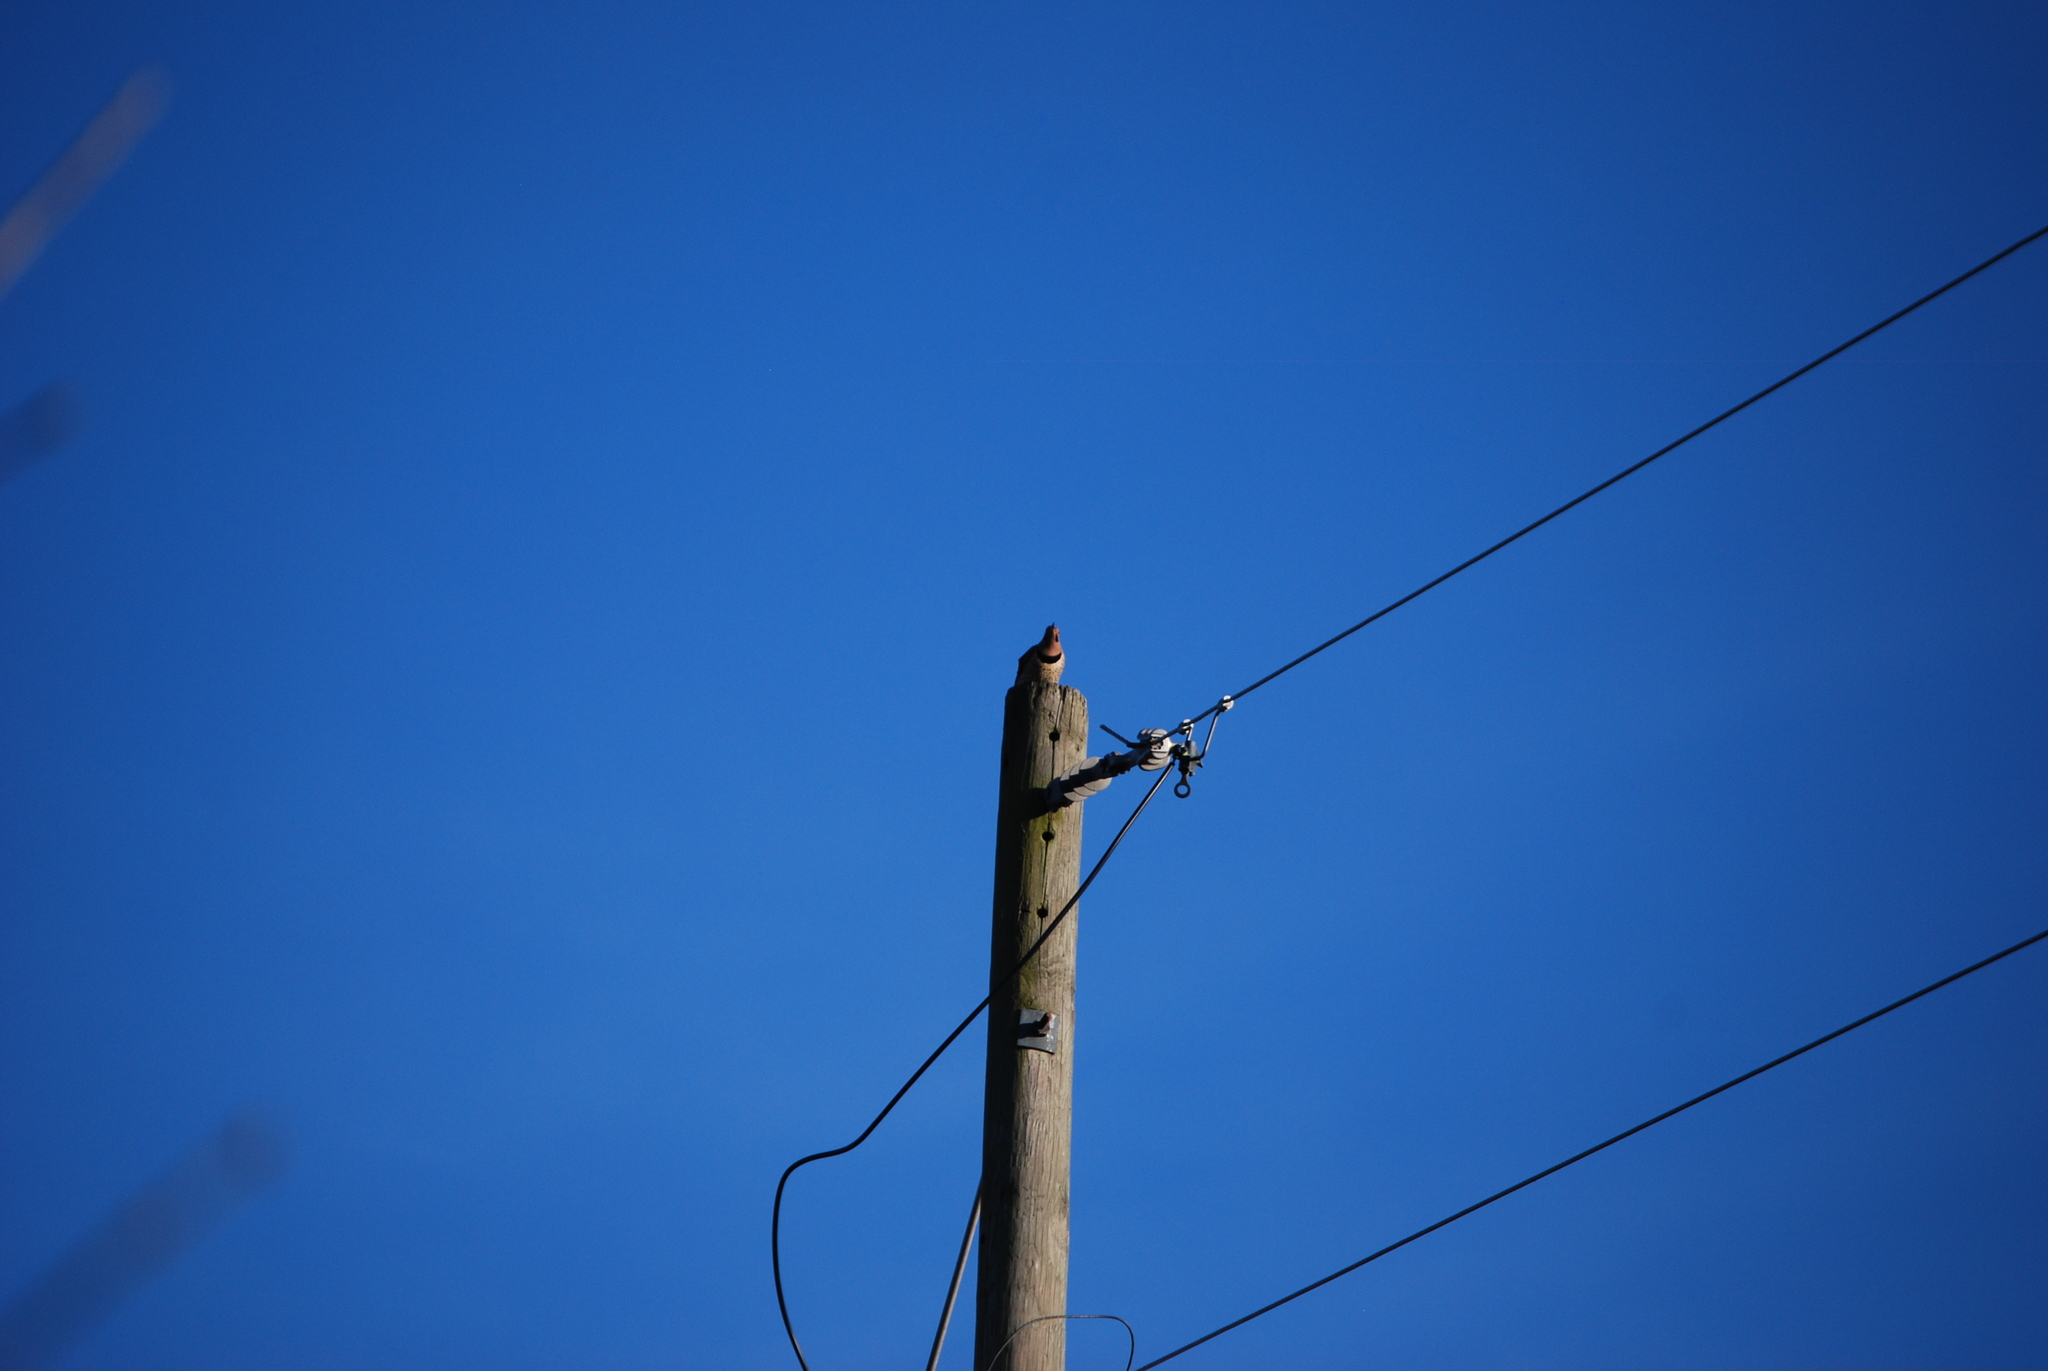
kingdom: Animalia
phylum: Chordata
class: Aves
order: Piciformes
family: Picidae
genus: Colaptes
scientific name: Colaptes auratus
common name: Northern flicker
